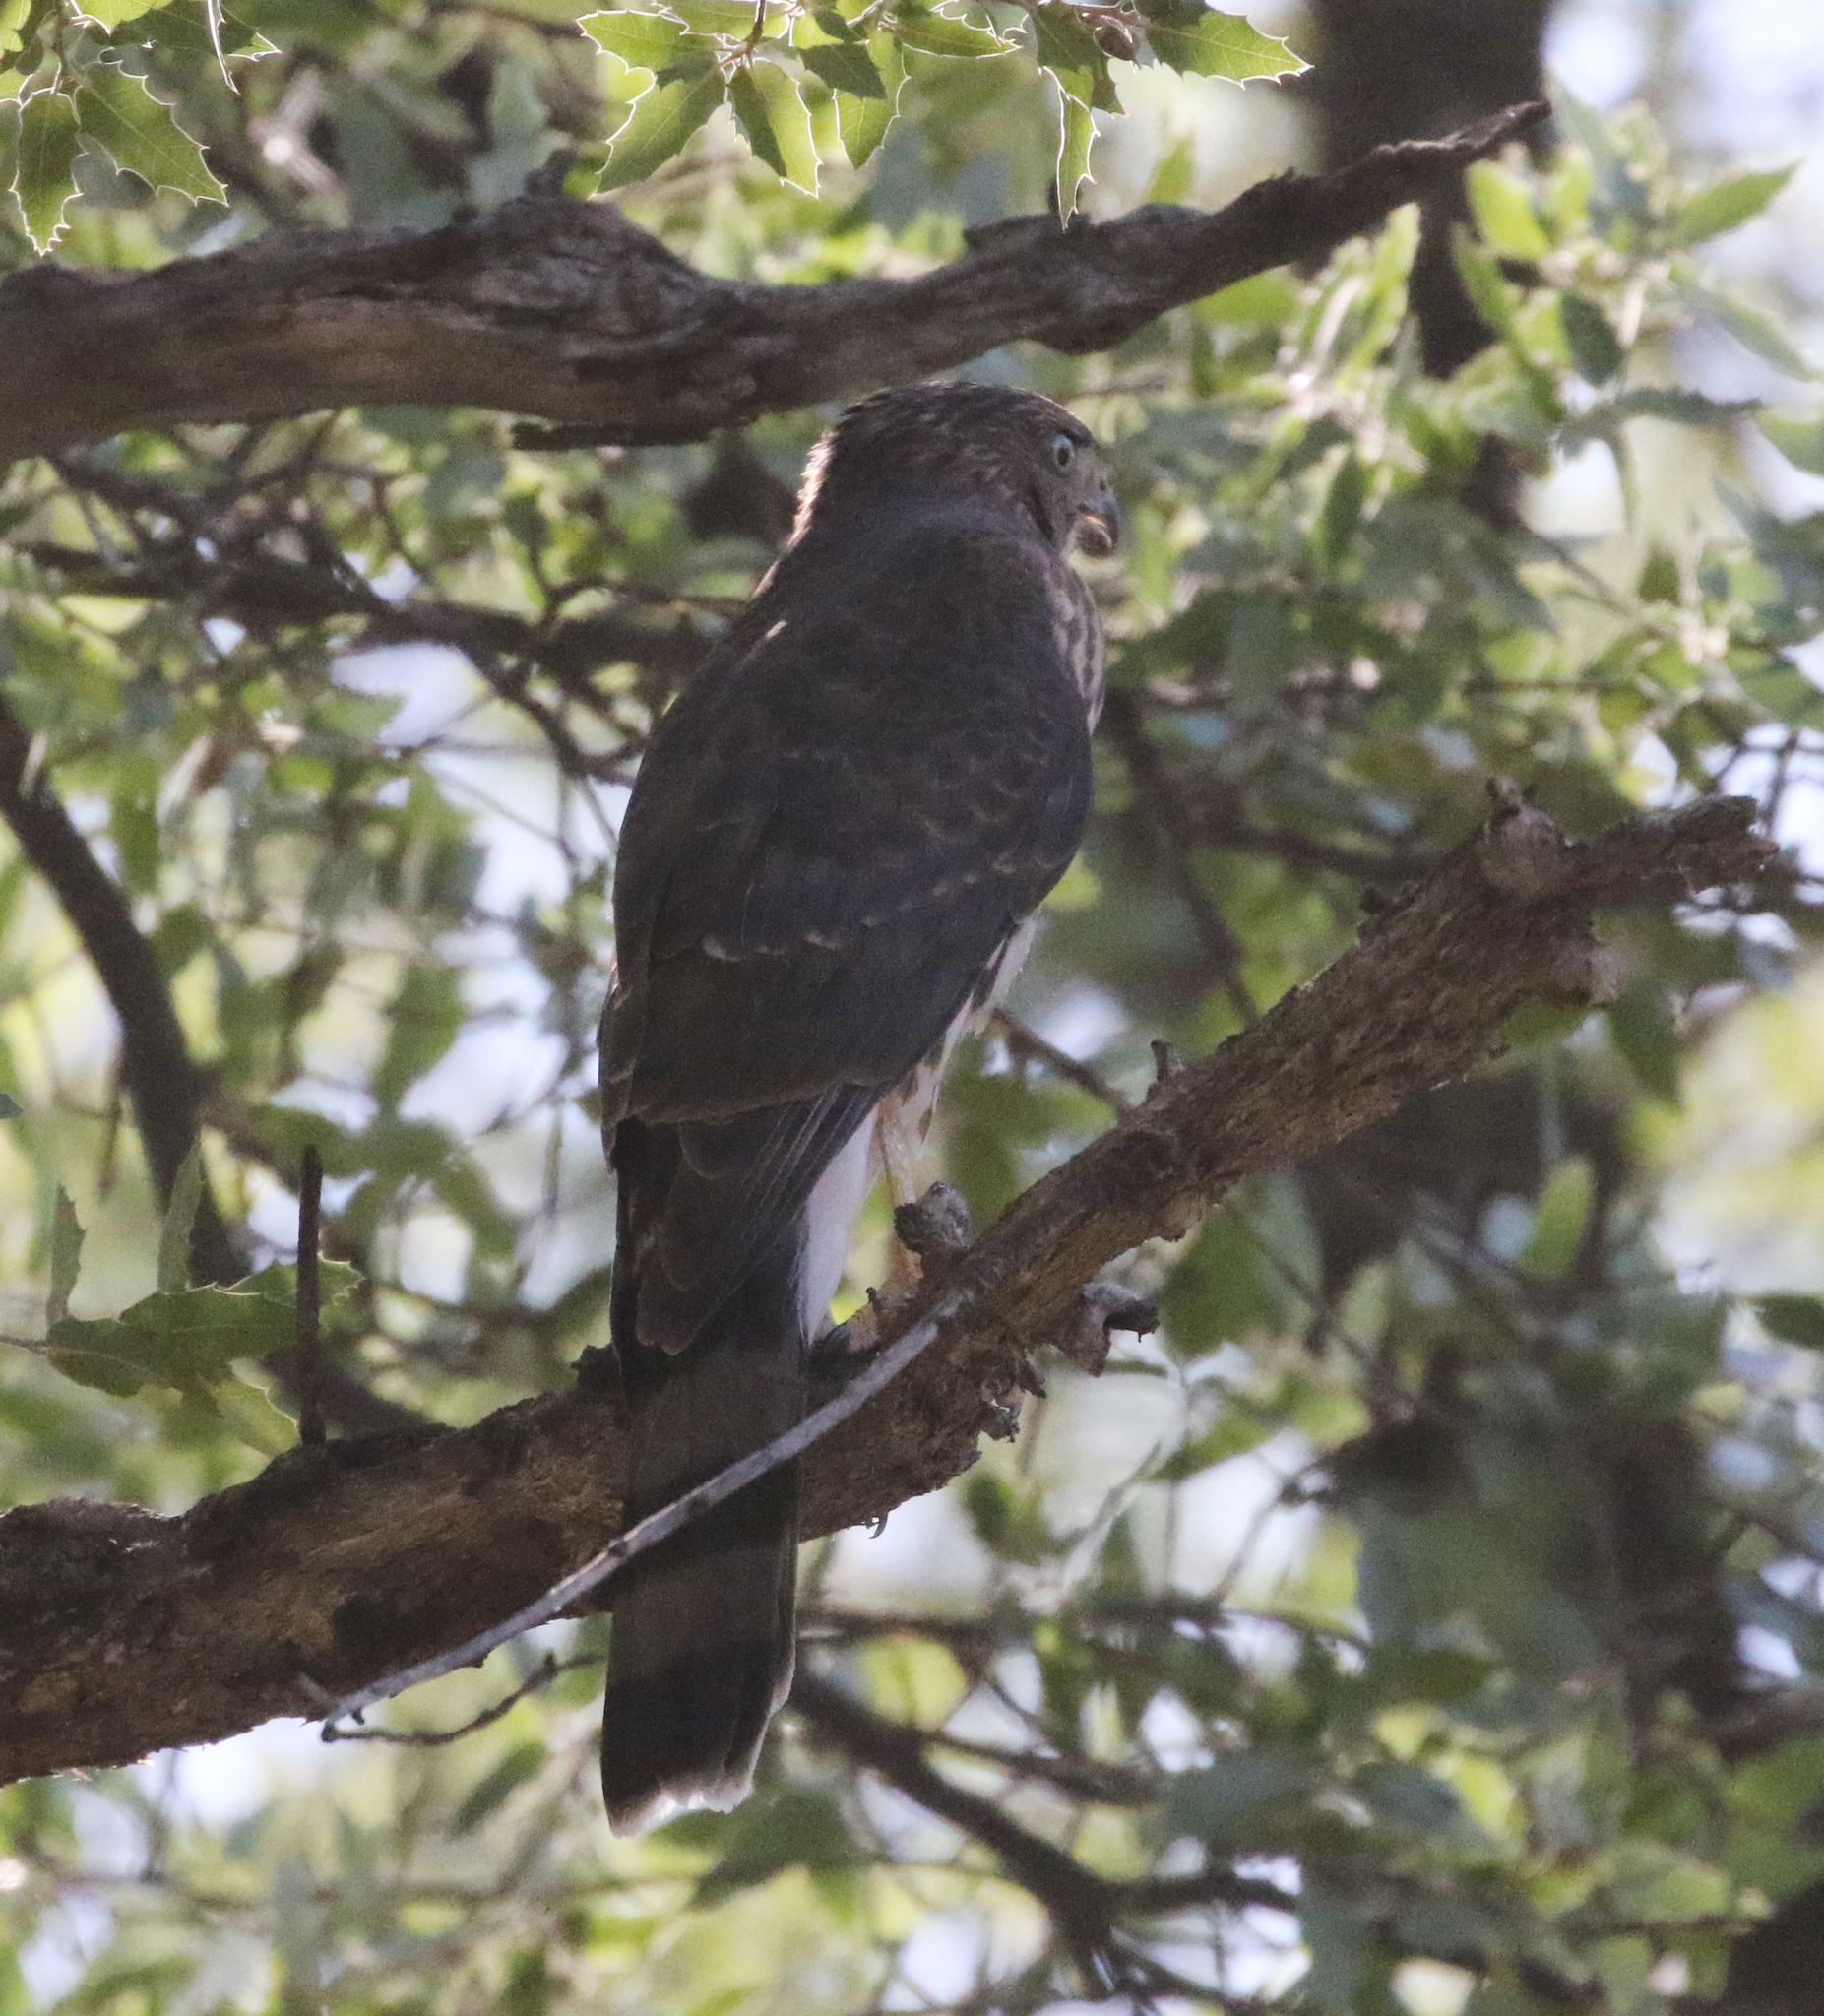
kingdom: Animalia
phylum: Chordata
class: Aves
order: Accipitriformes
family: Accipitridae
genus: Accipiter
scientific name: Accipiter cooperii
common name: Cooper's hawk
